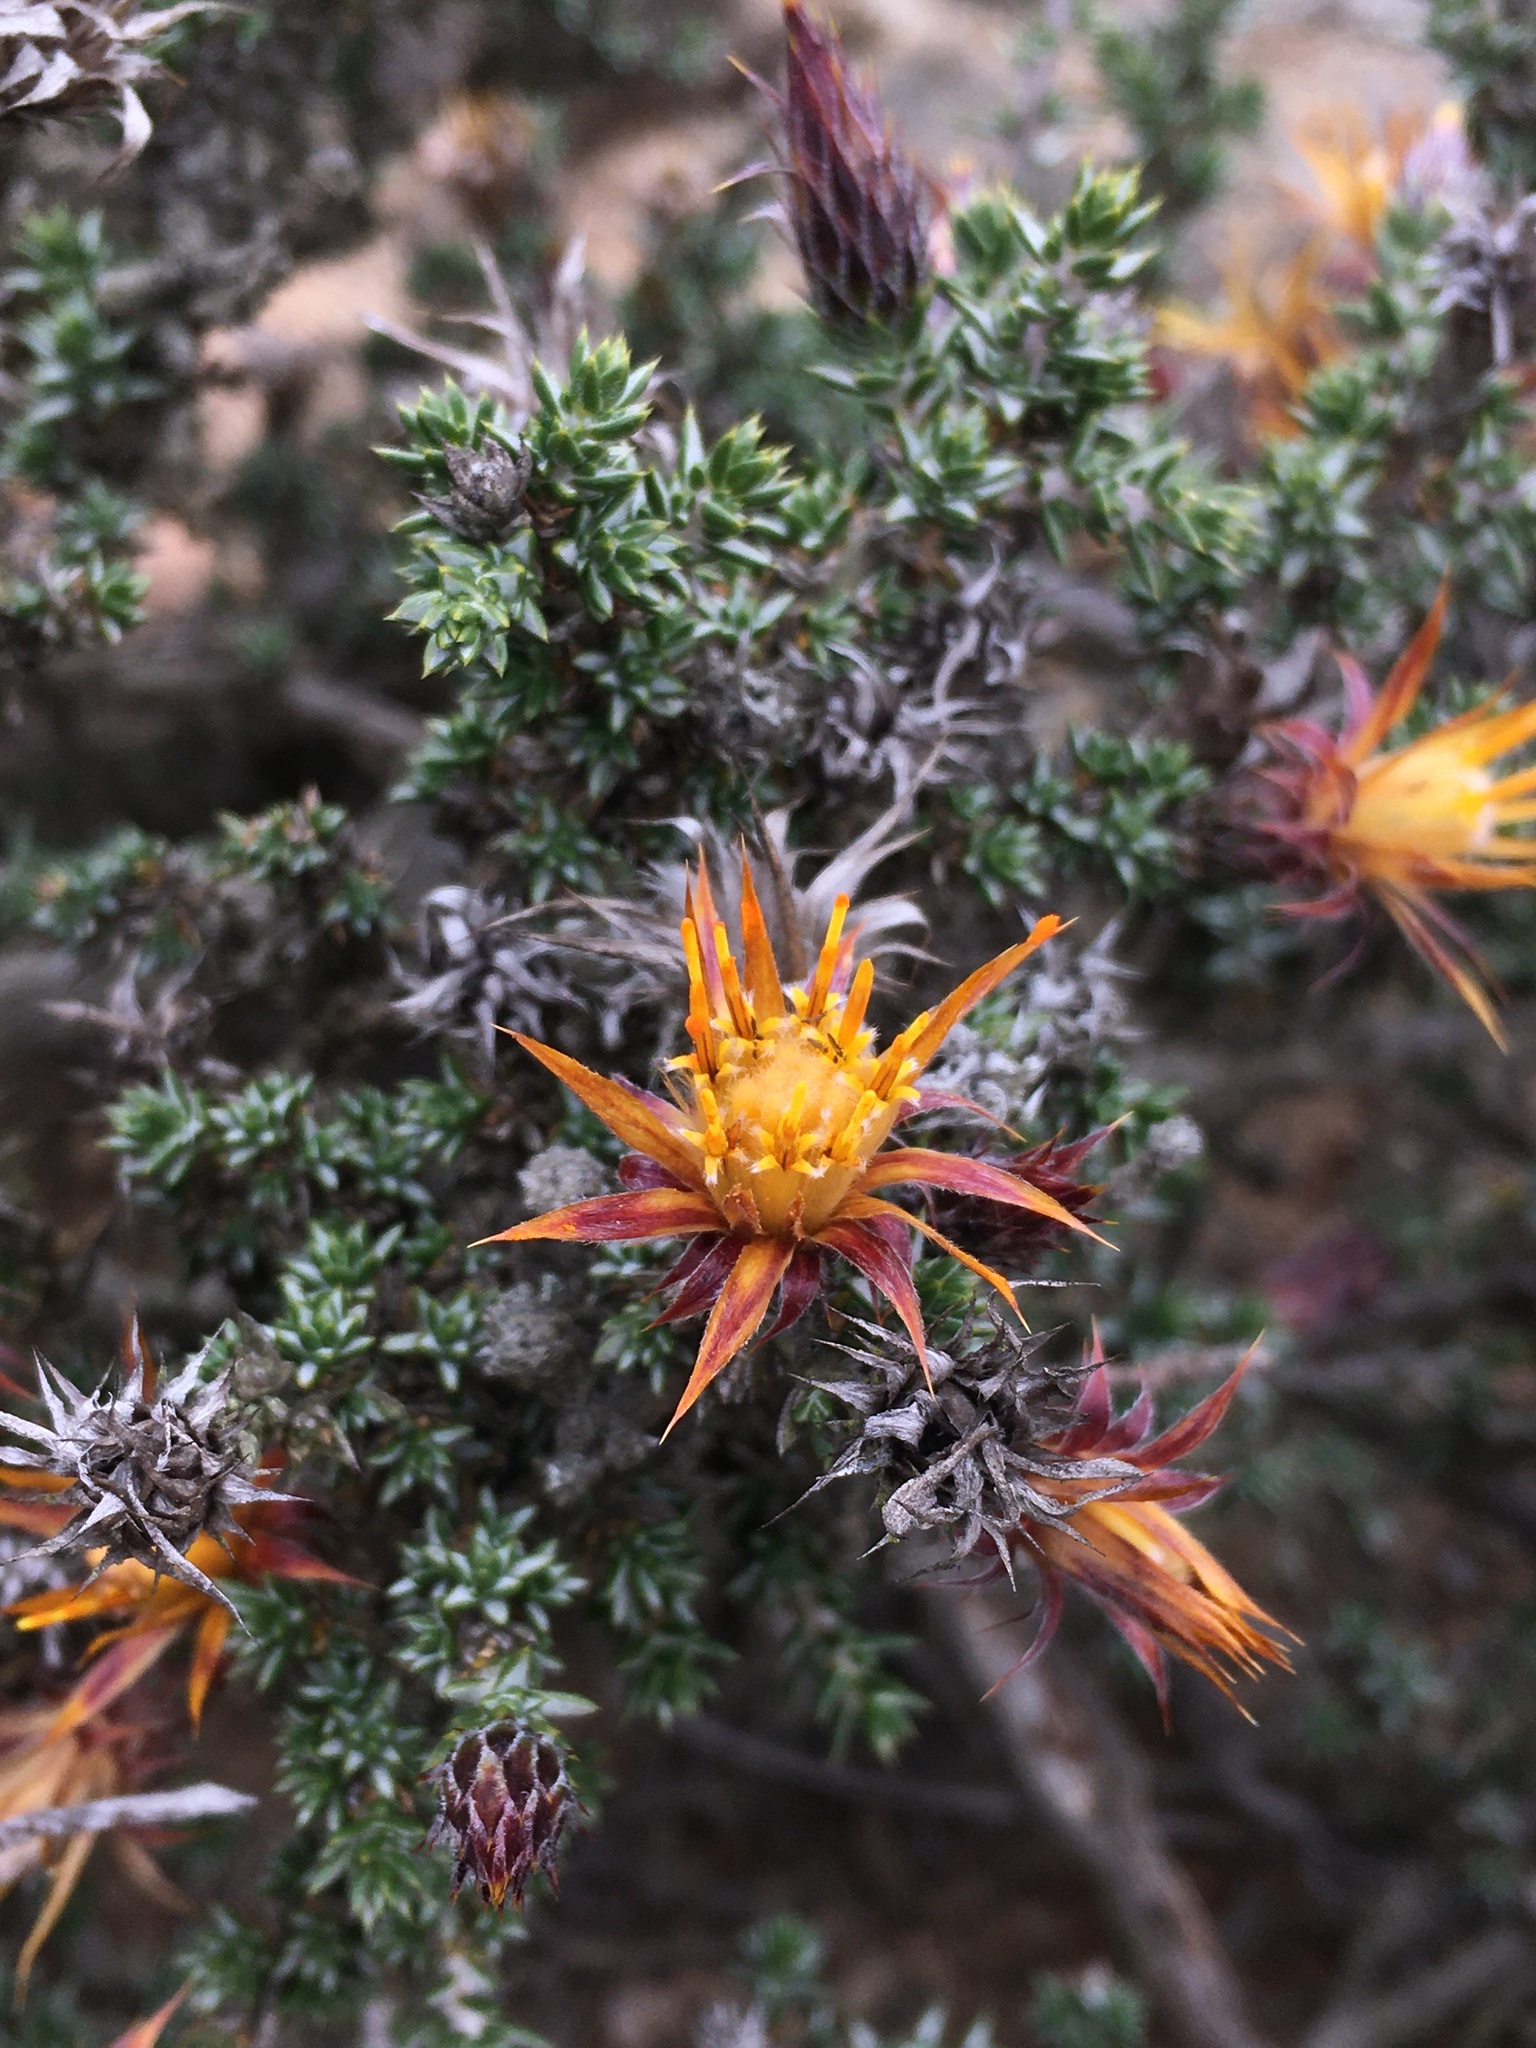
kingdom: Plantae
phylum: Tracheophyta
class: Magnoliopsida
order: Asterales
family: Asteraceae
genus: Chuquiraga
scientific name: Chuquiraga ulicina
